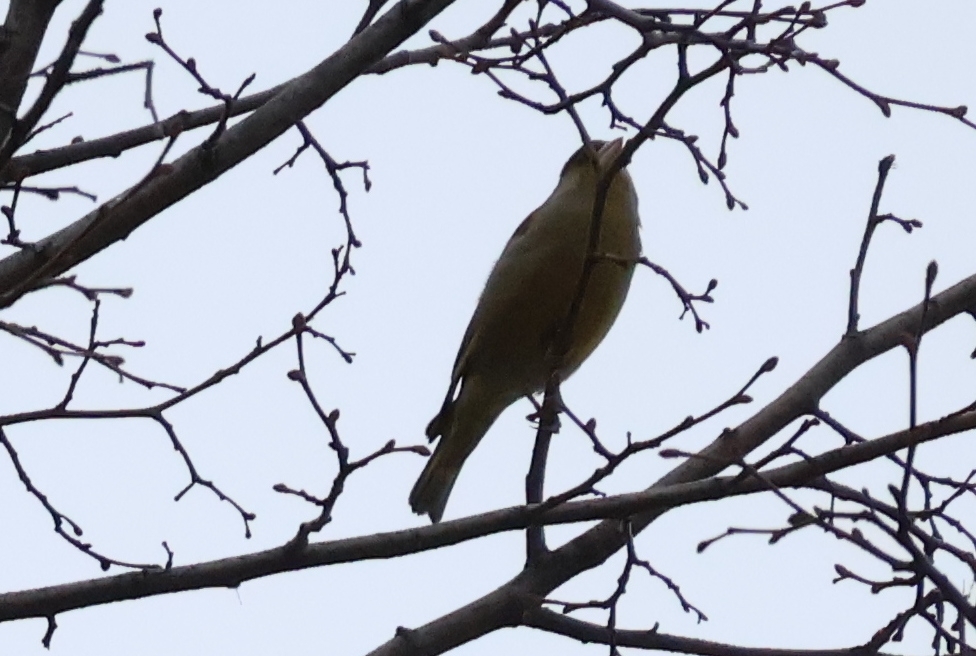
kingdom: Plantae
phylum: Tracheophyta
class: Liliopsida
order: Poales
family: Poaceae
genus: Chloris
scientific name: Chloris chloris
